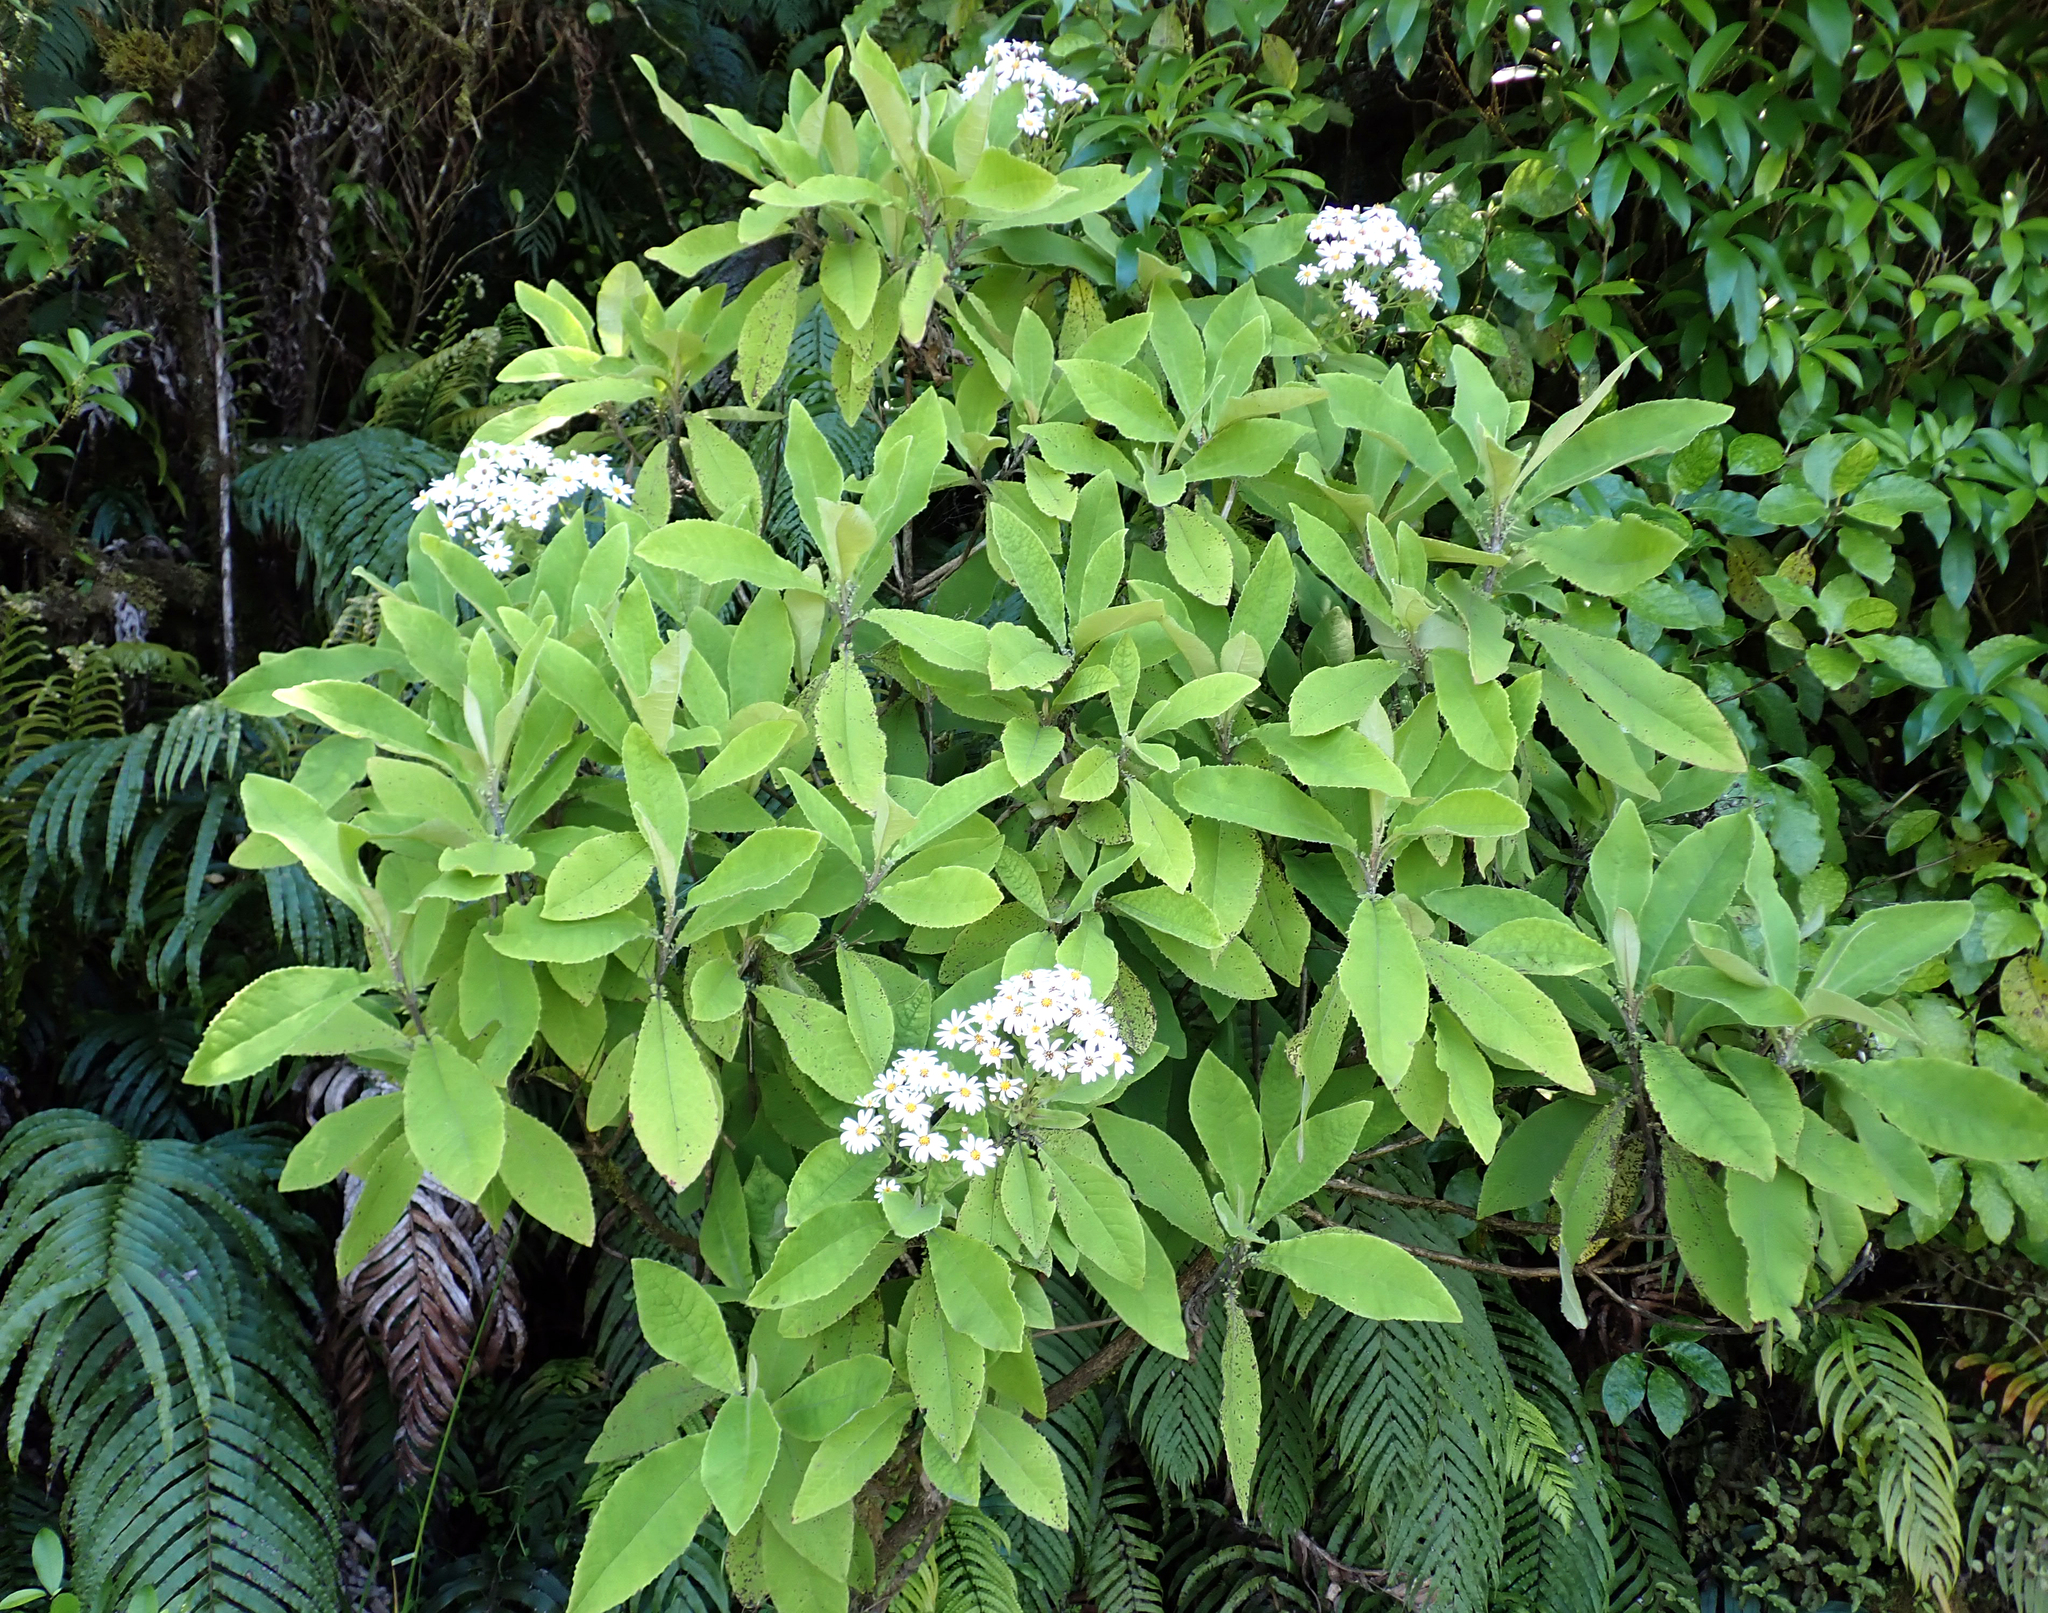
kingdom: Plantae
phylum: Tracheophyta
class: Magnoliopsida
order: Asterales
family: Asteraceae
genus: Brachyglottis
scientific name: Brachyglottis hectorii
